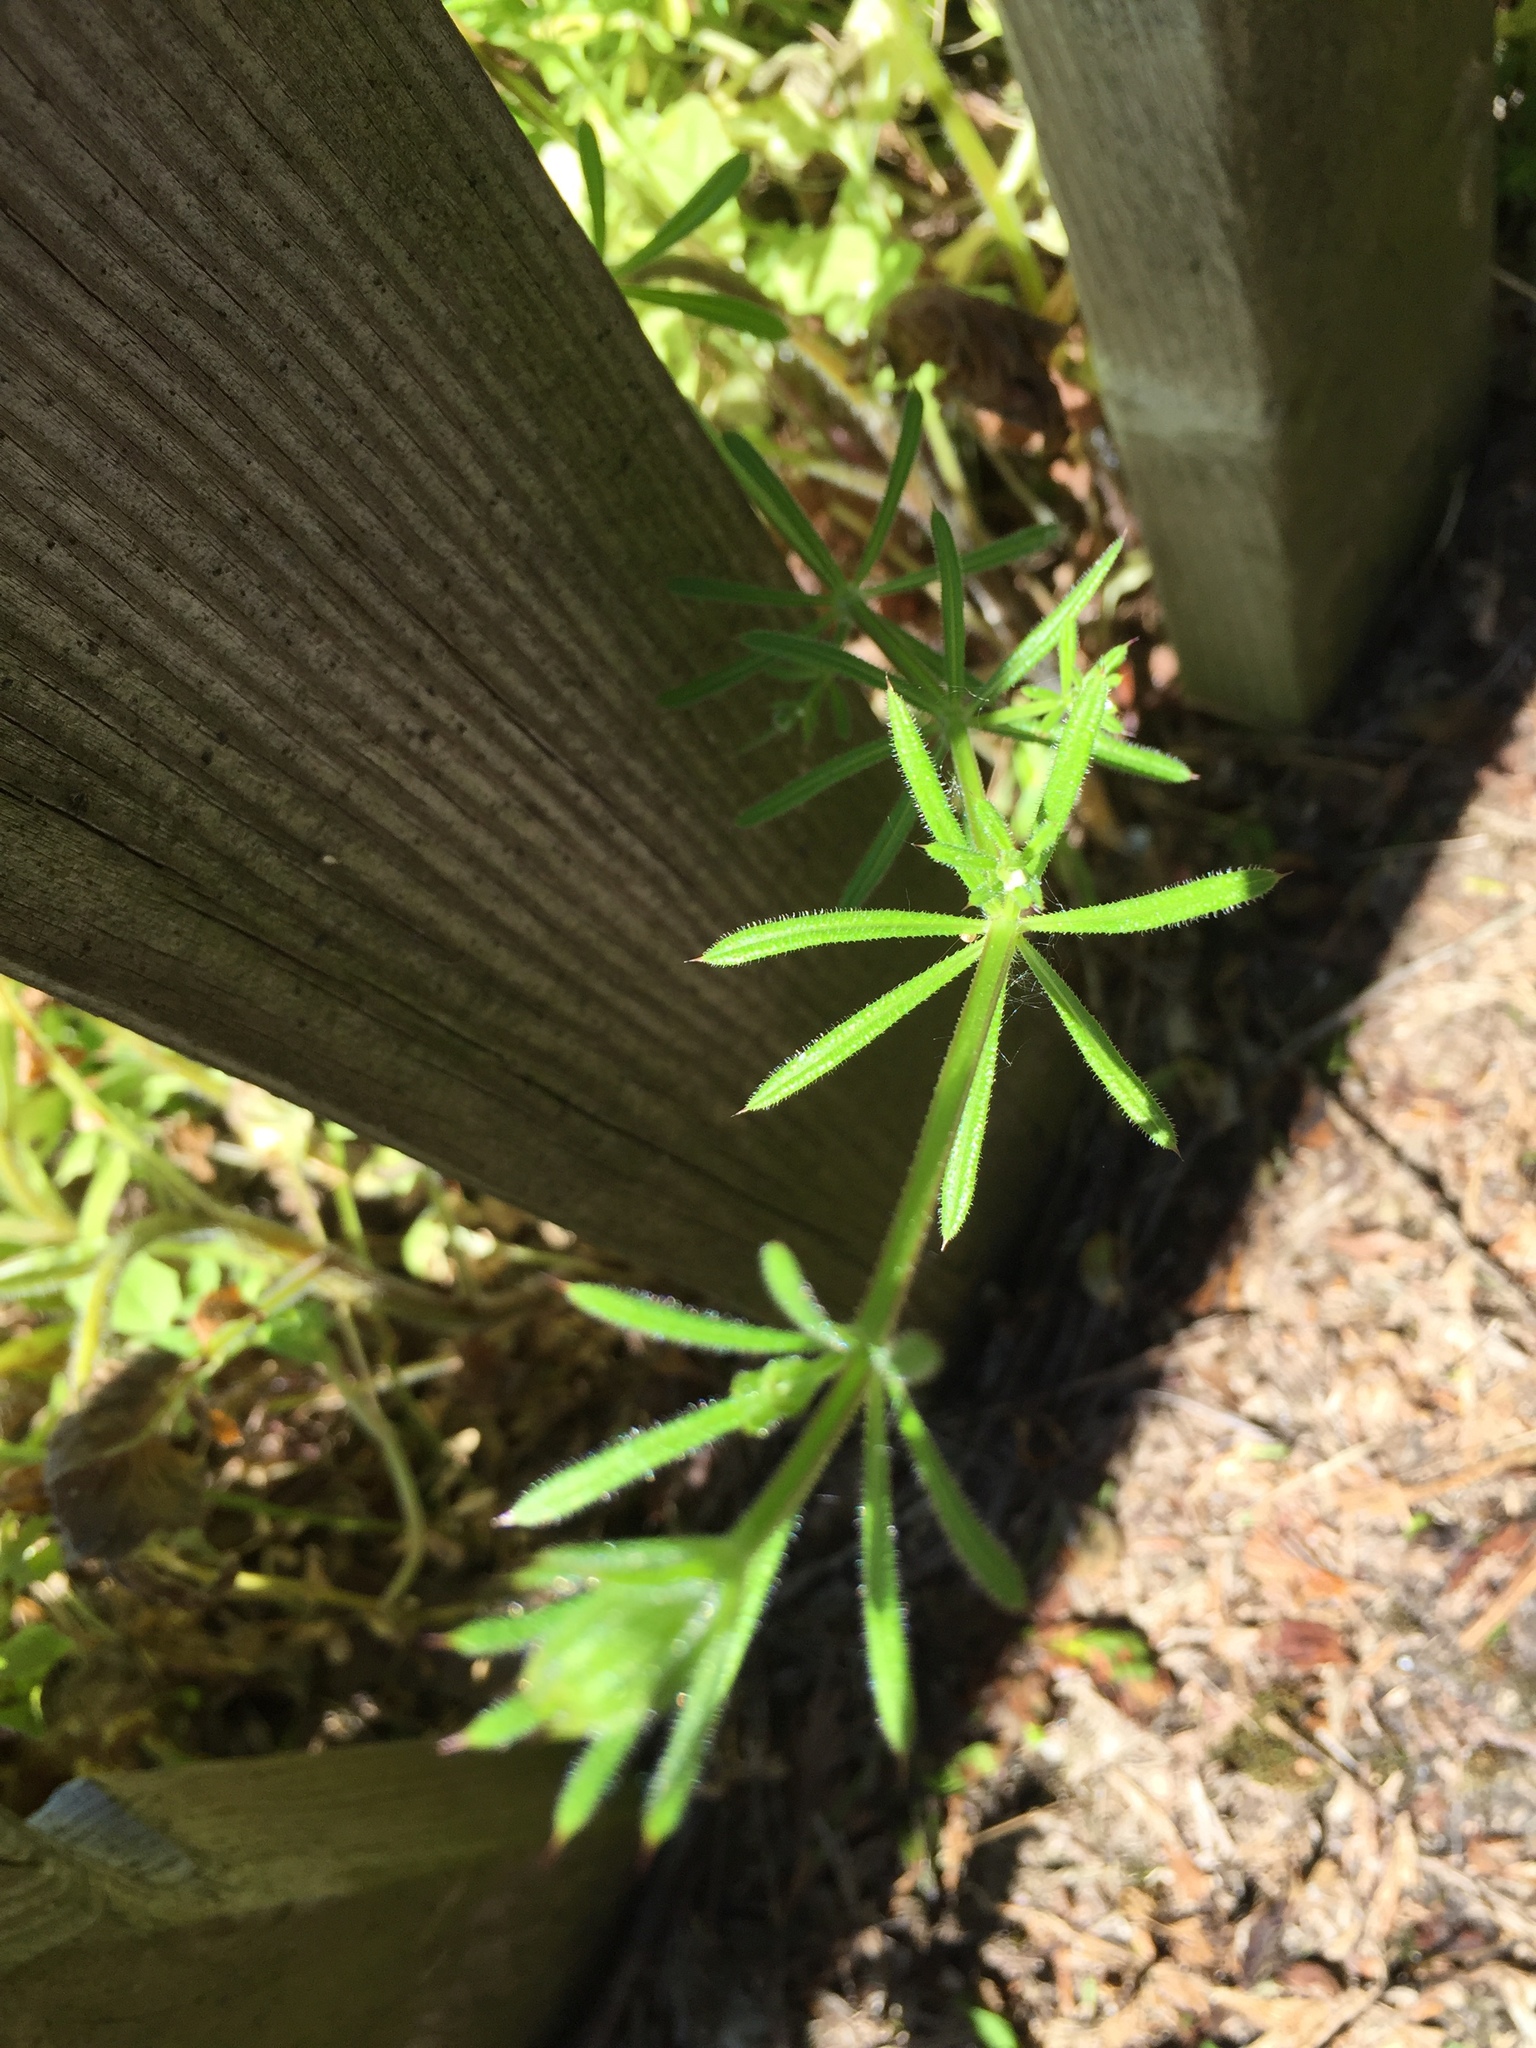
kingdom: Plantae
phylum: Tracheophyta
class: Magnoliopsida
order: Gentianales
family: Rubiaceae
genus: Galium
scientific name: Galium aparine
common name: Cleavers
